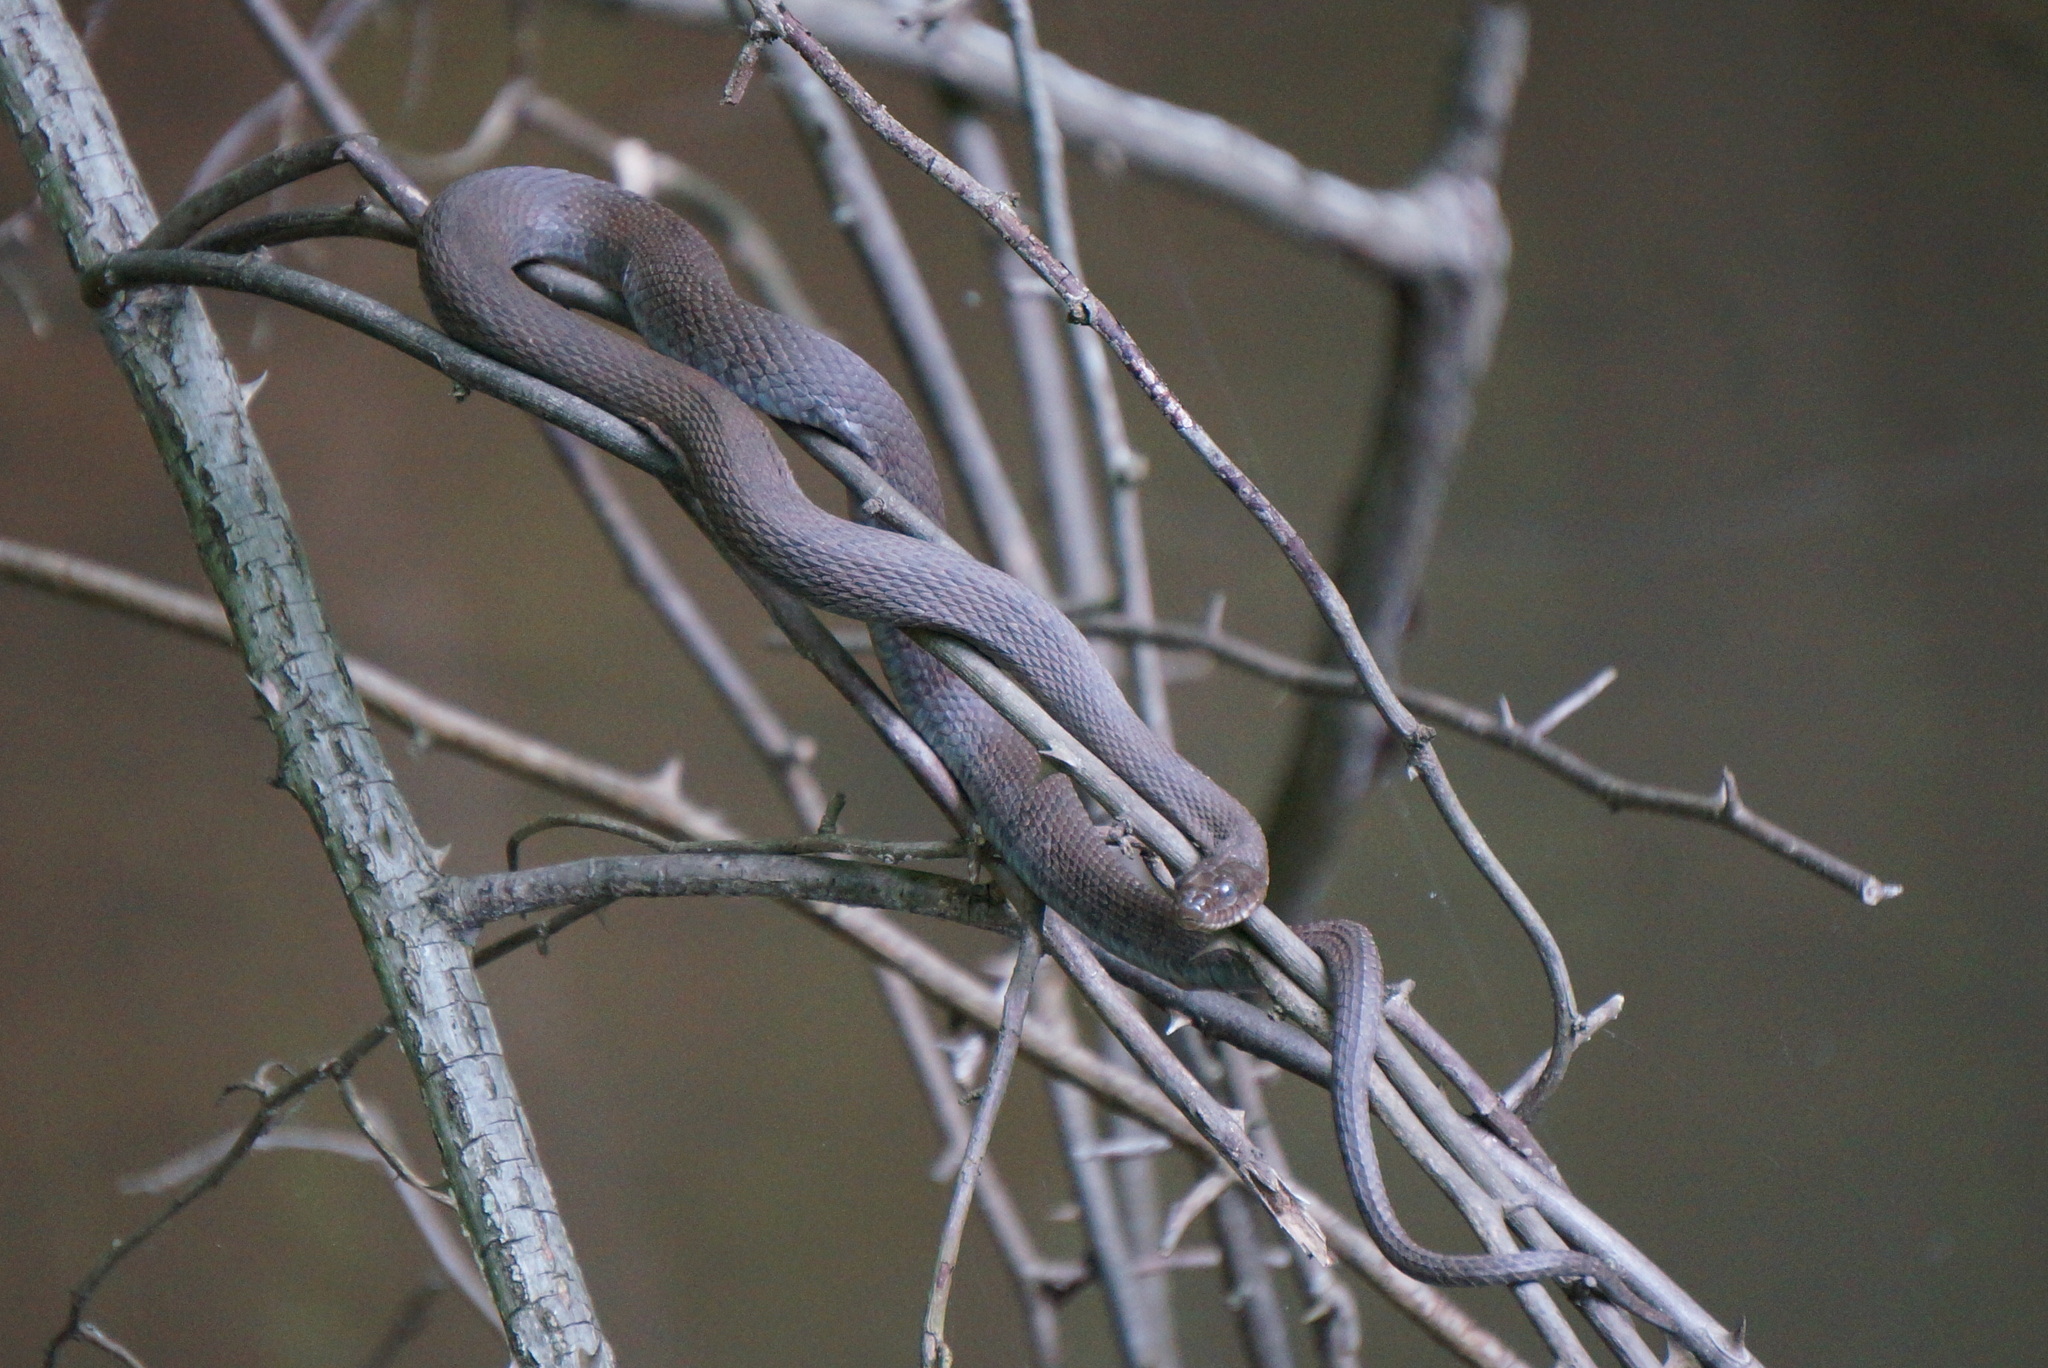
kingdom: Animalia
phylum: Chordata
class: Squamata
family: Colubridae
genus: Nerodia
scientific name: Nerodia sipedon
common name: Northern water snake
